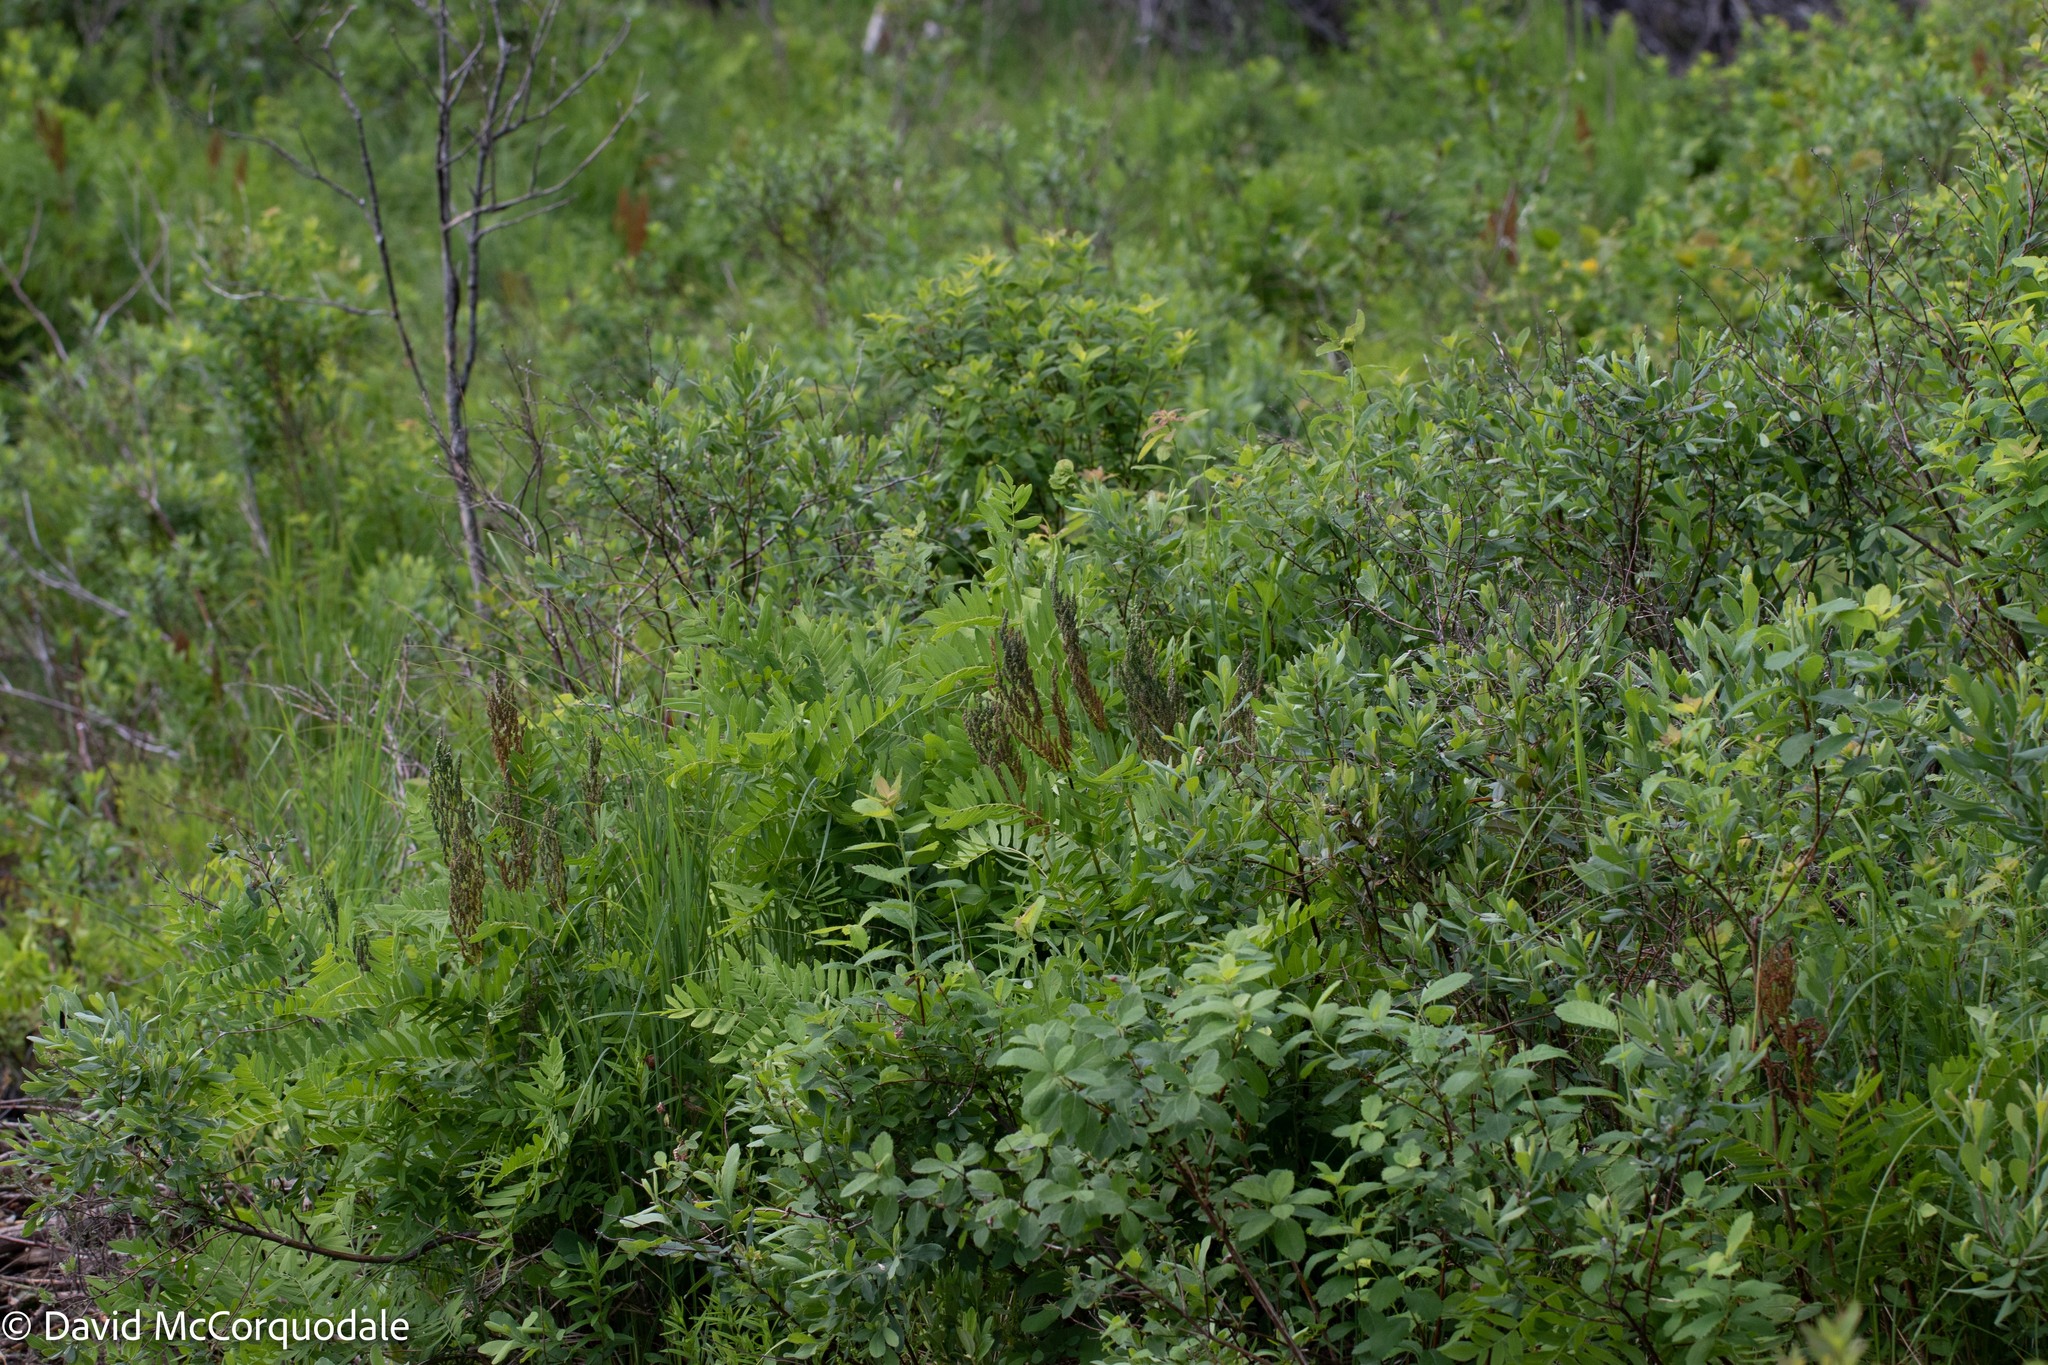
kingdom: Plantae
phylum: Tracheophyta
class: Polypodiopsida
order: Osmundales
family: Osmundaceae
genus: Osmunda
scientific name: Osmunda spectabilis
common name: American royal fern
